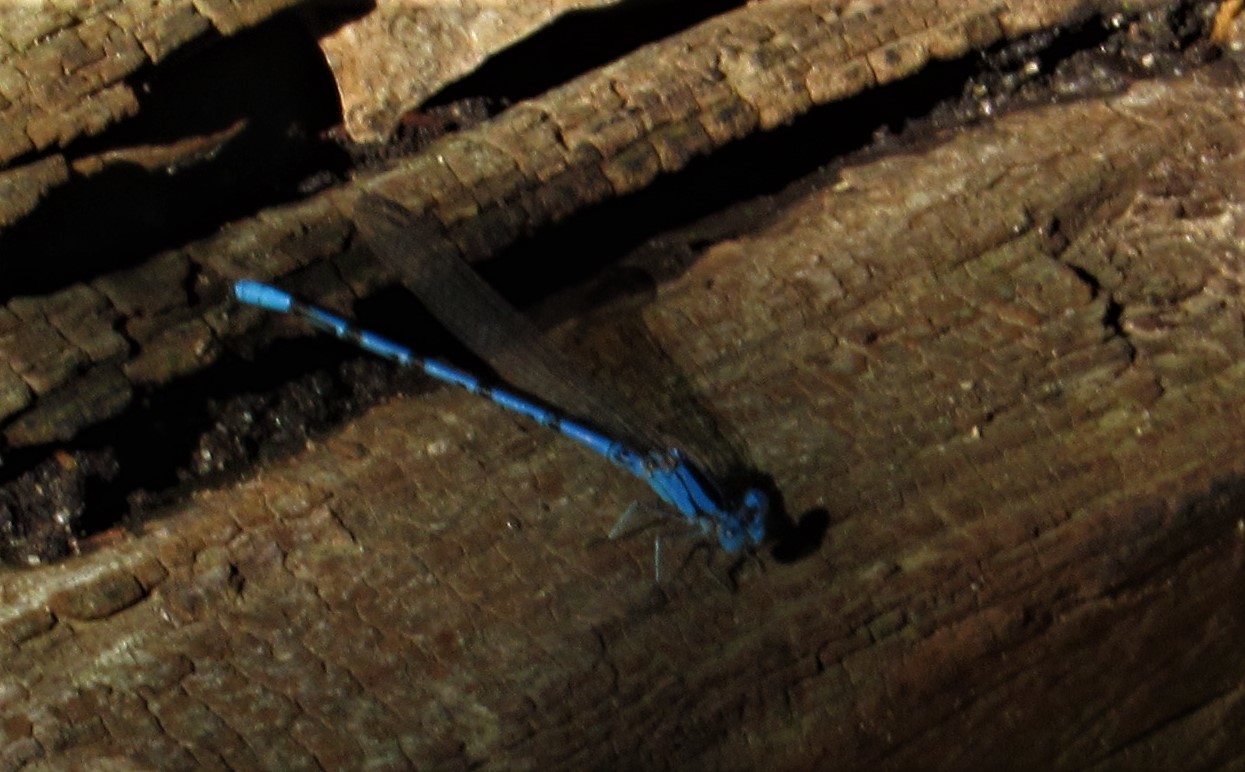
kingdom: Animalia
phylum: Arthropoda
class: Insecta
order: Odonata
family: Coenagrionidae
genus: Argia
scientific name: Argia funebris
